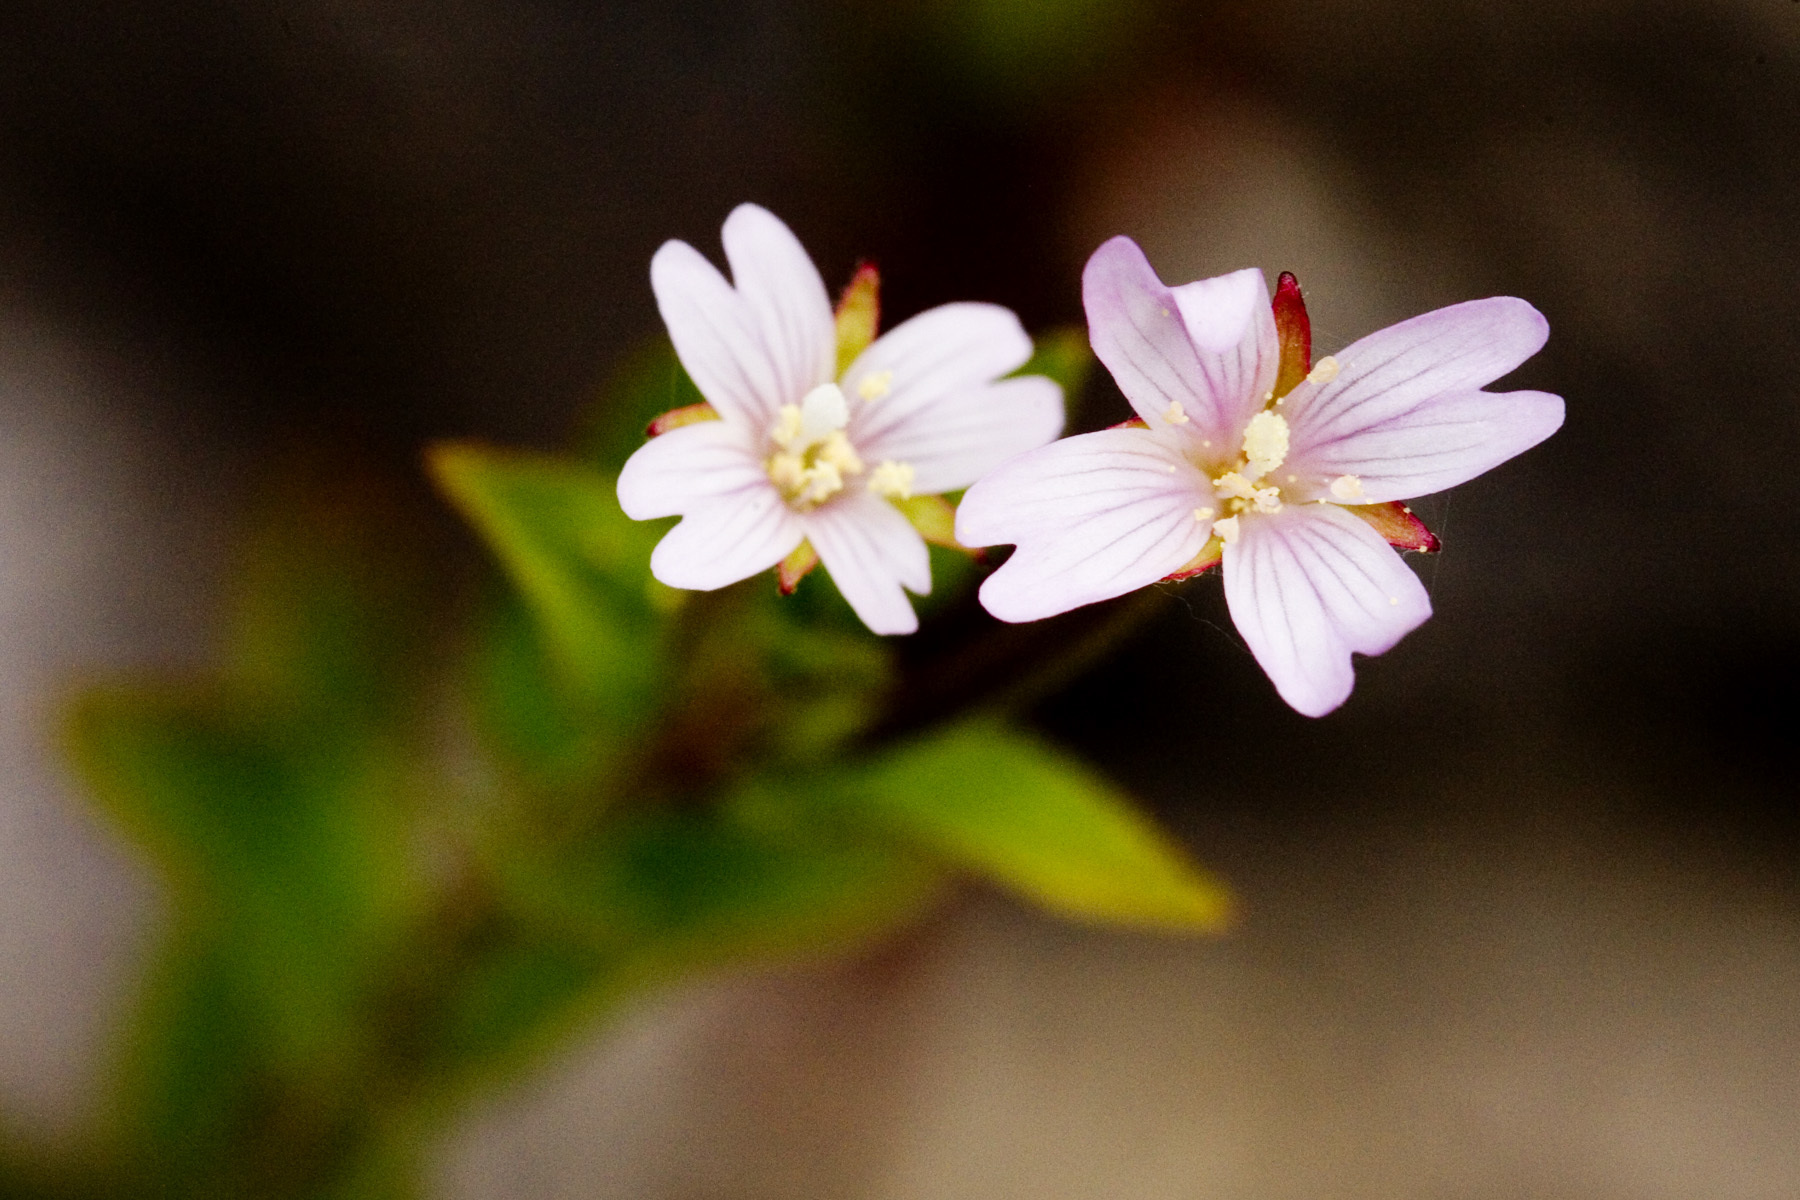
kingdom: Plantae
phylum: Tracheophyta
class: Magnoliopsida
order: Myrtales
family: Onagraceae
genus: Epilobium
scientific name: Epilobium ciliatum
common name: American willowherb
